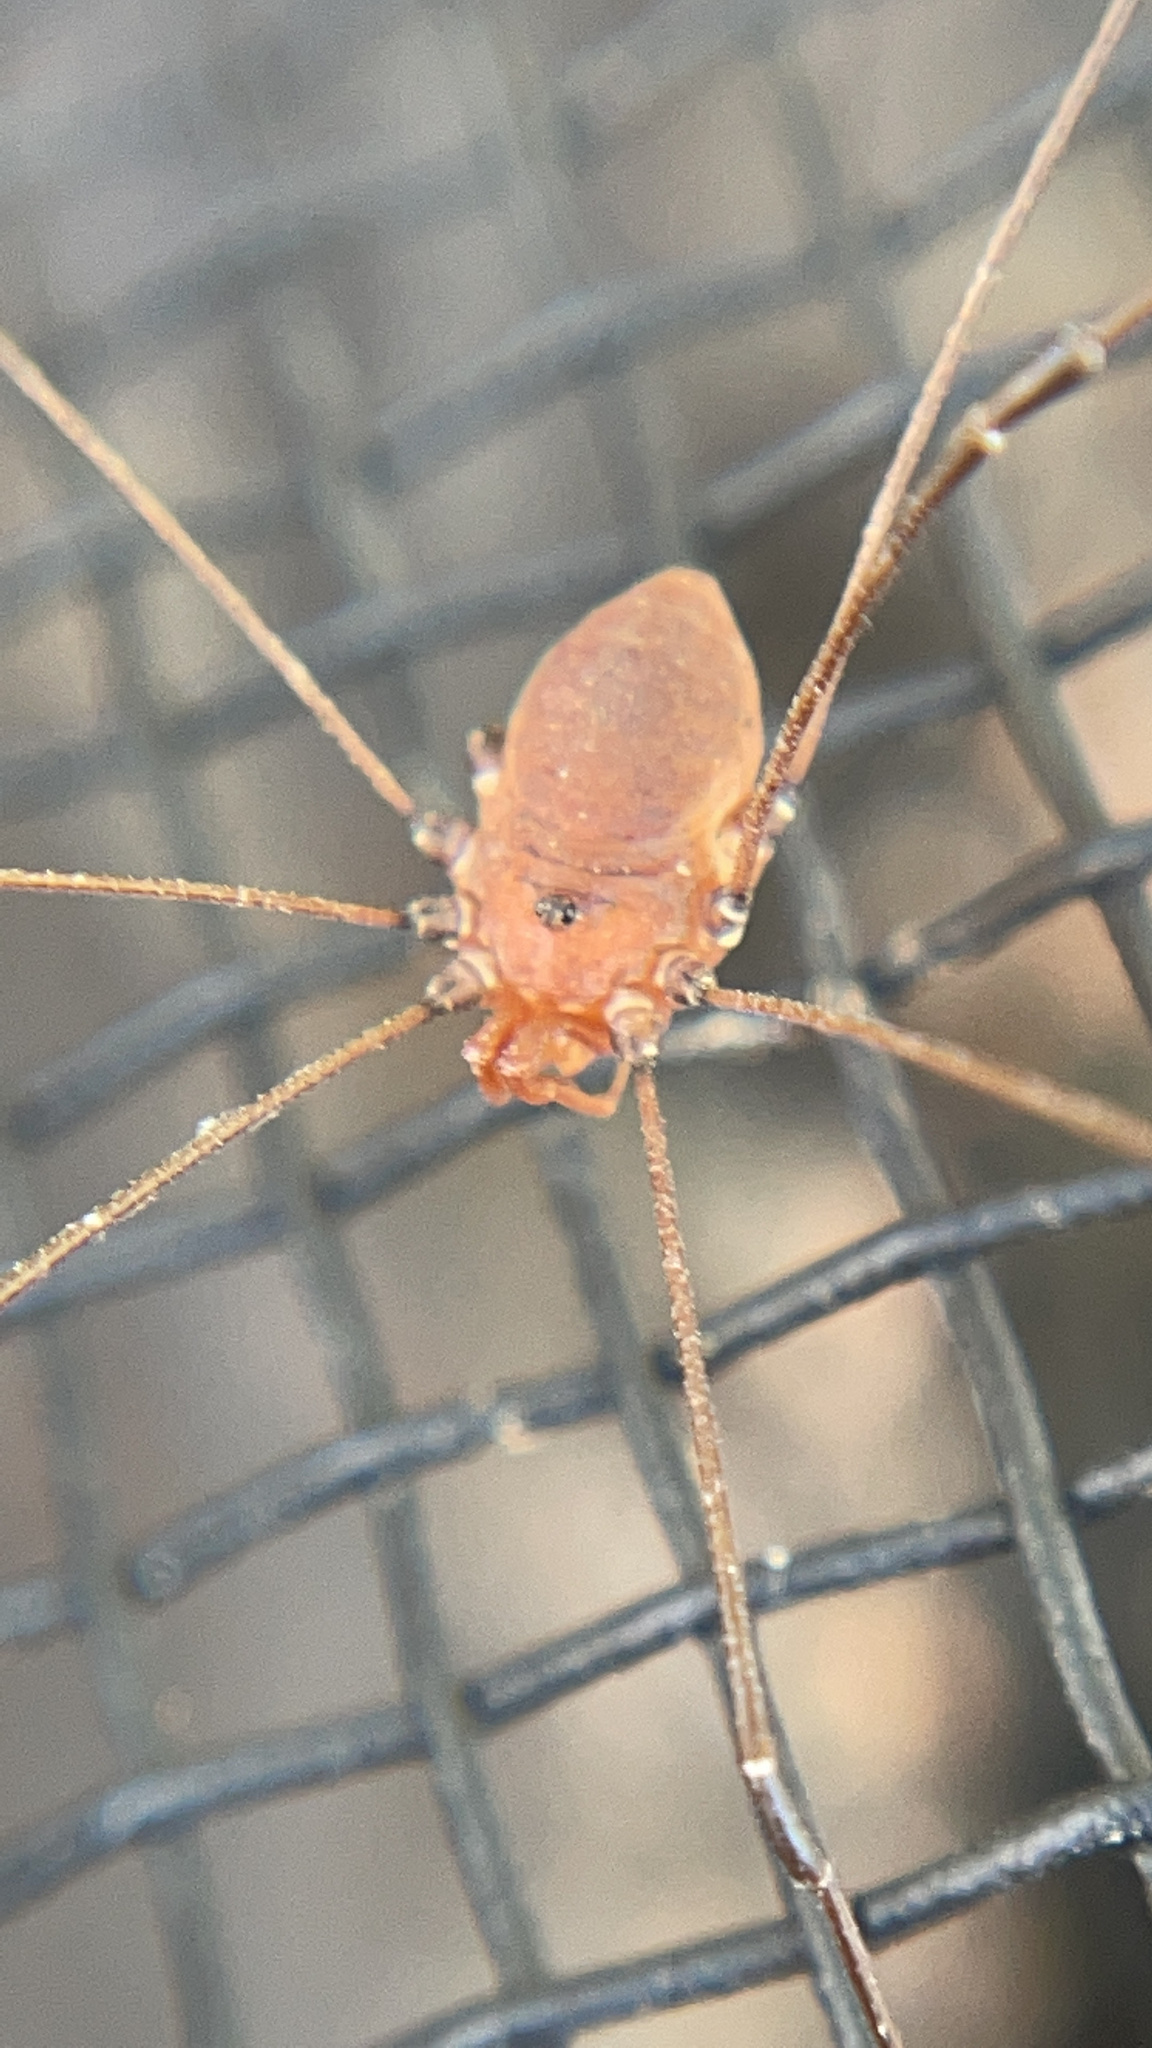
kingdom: Animalia
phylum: Arthropoda
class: Arachnida
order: Opiliones
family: Sclerosomatidae
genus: Leiobunum
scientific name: Leiobunum vittatum
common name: Eastern harvestman
